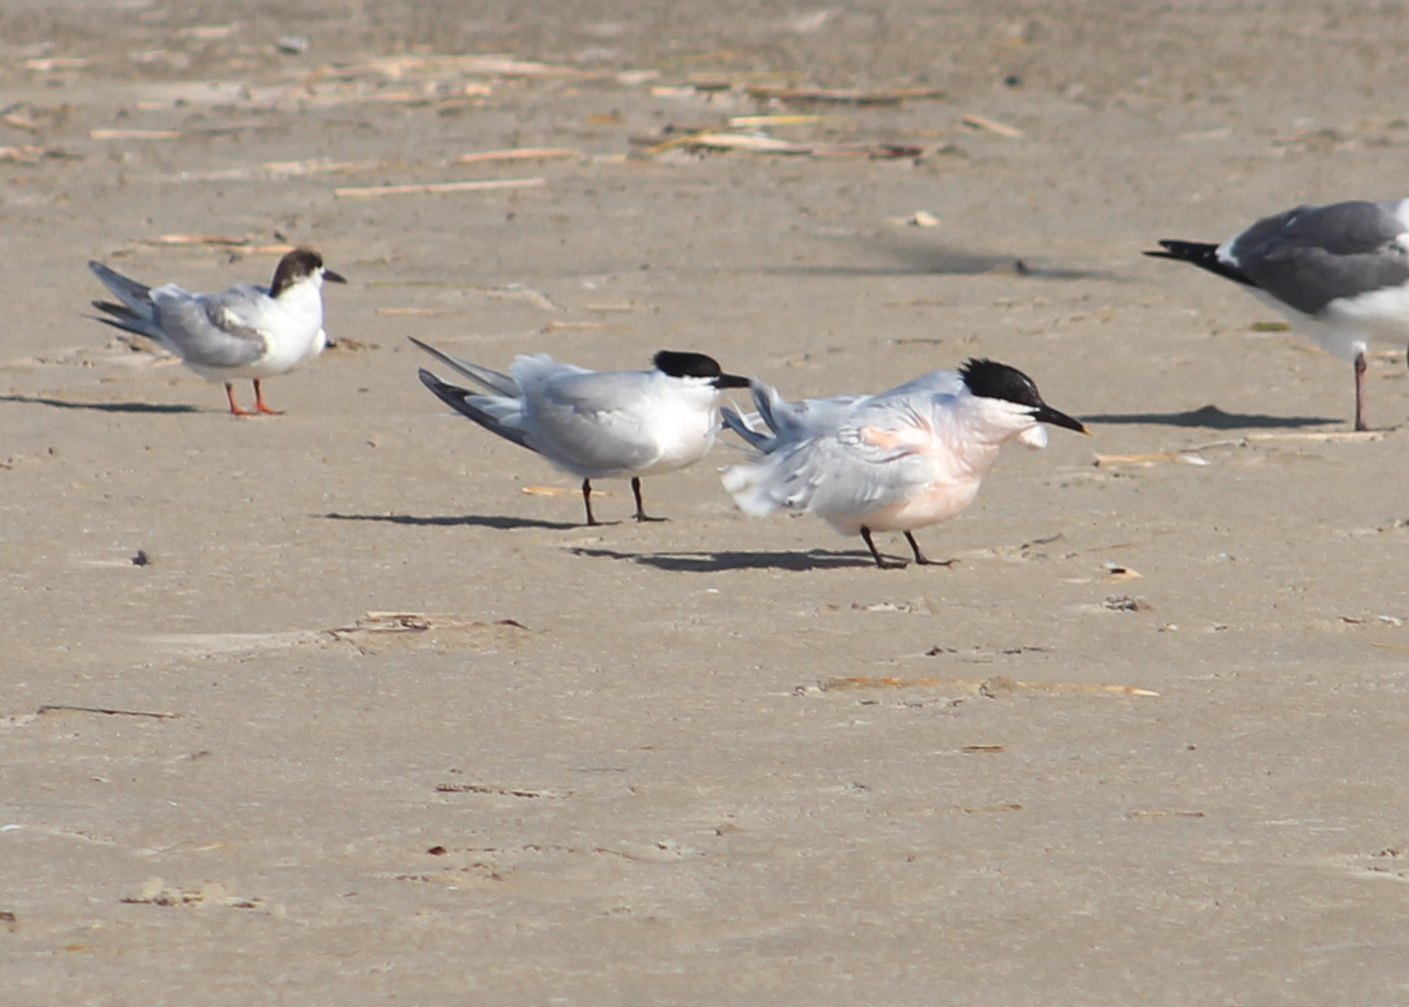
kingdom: Animalia
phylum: Chordata
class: Aves
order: Charadriiformes
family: Laridae
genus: Thalasseus
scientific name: Thalasseus sandvicensis
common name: Sandwich tern
